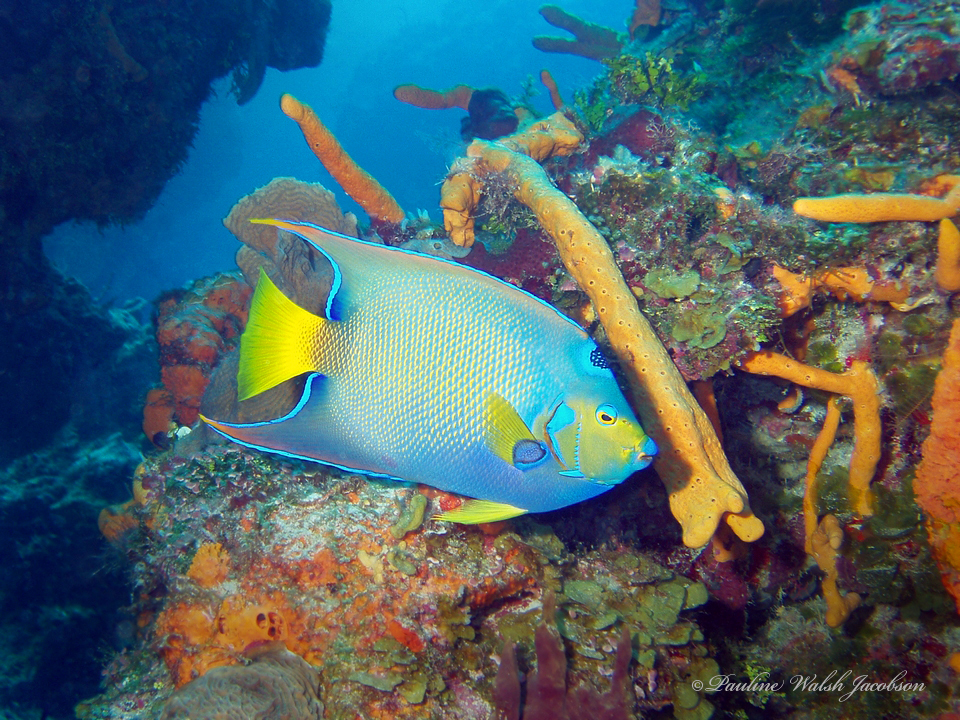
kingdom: Animalia
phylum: Chordata
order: Perciformes
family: Pomacanthidae
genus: Holacanthus
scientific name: Holacanthus ciliaris
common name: Queen angelfish
